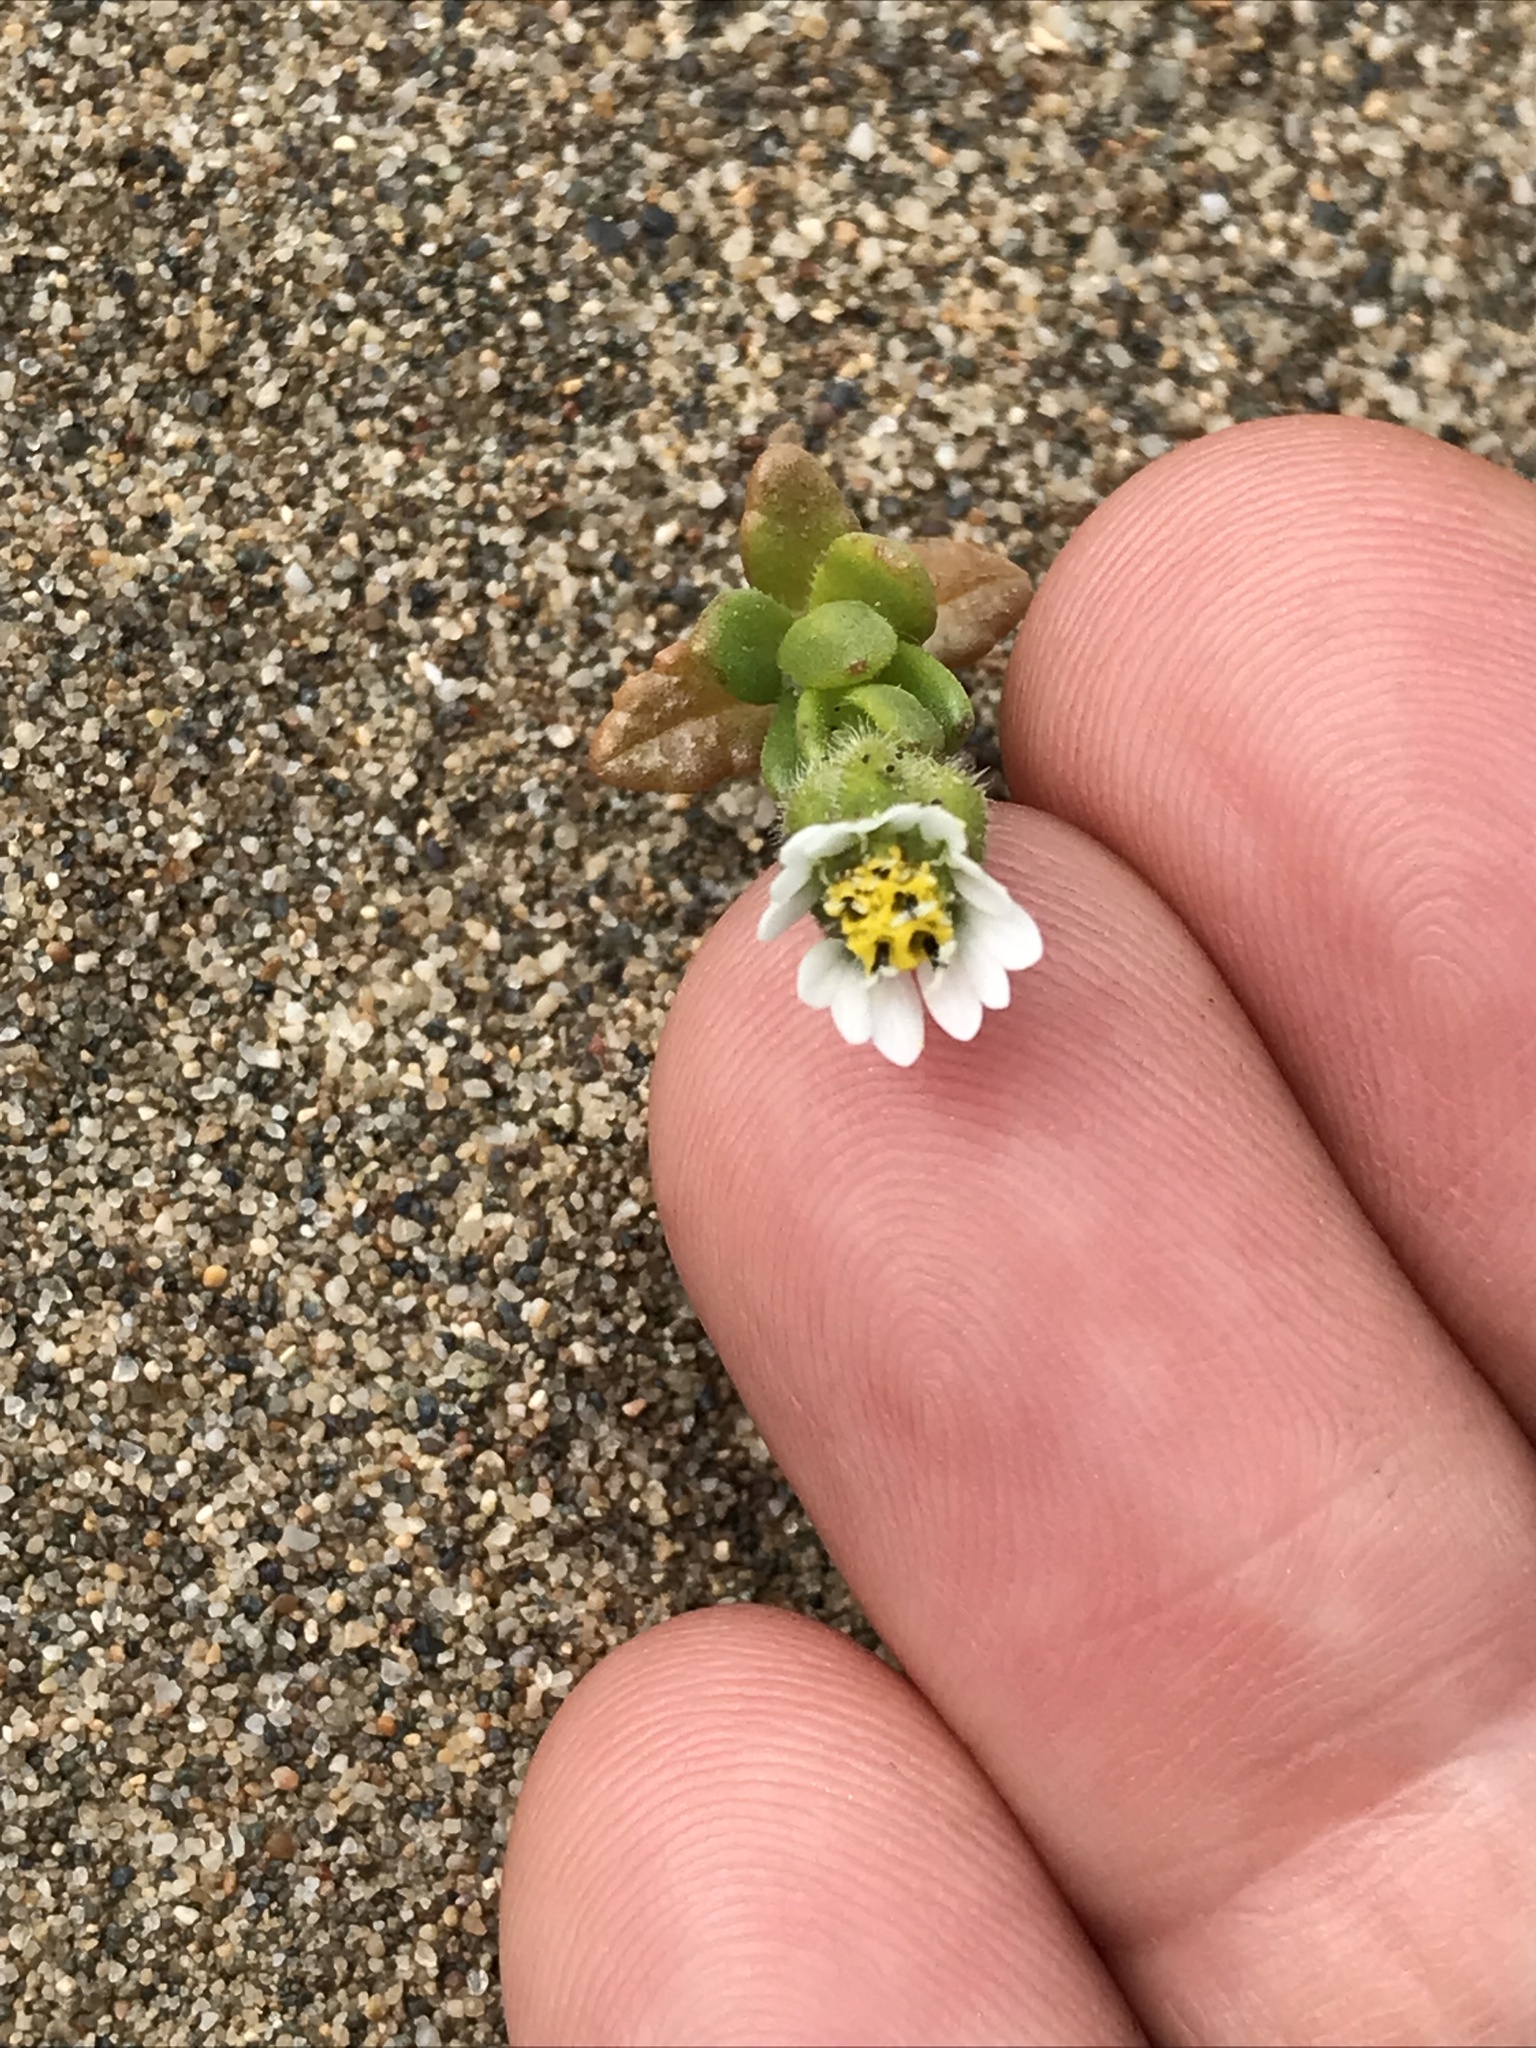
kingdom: Plantae
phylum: Tracheophyta
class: Magnoliopsida
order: Asterales
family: Asteraceae
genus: Layia
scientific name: Layia carnosa
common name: Beach layia
